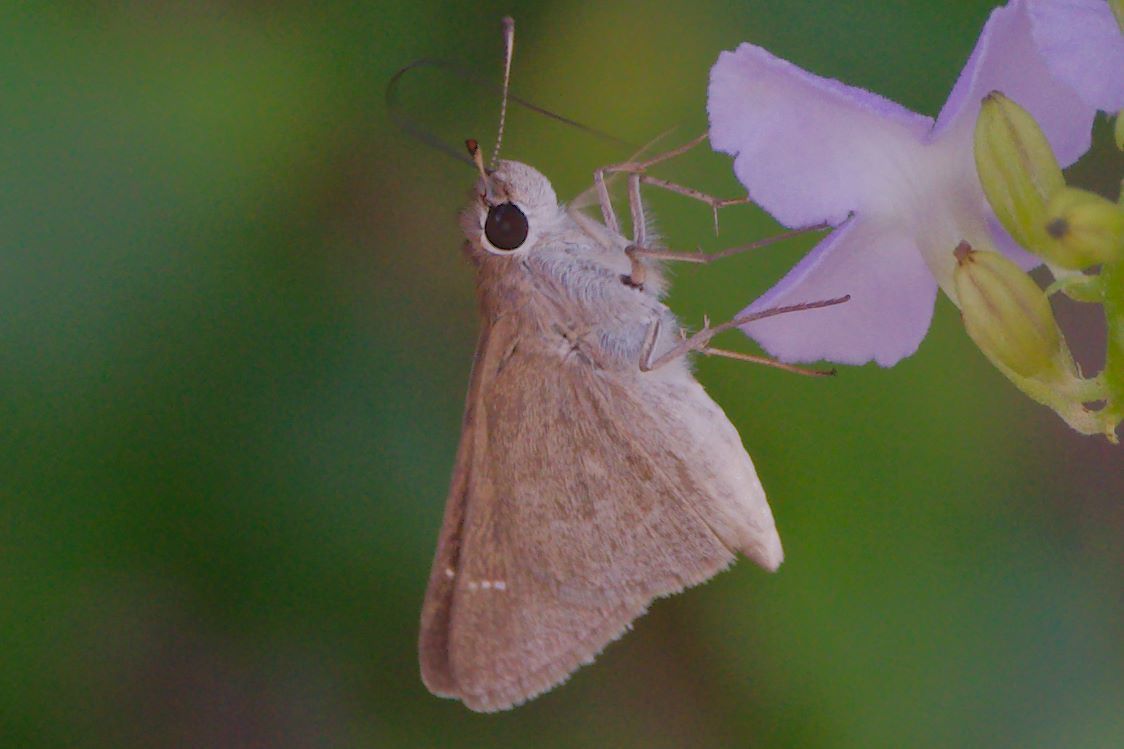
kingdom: Animalia
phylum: Arthropoda
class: Insecta
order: Lepidoptera
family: Hesperiidae
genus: Lerodea
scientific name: Lerodea eufala
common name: Eufala skipper
